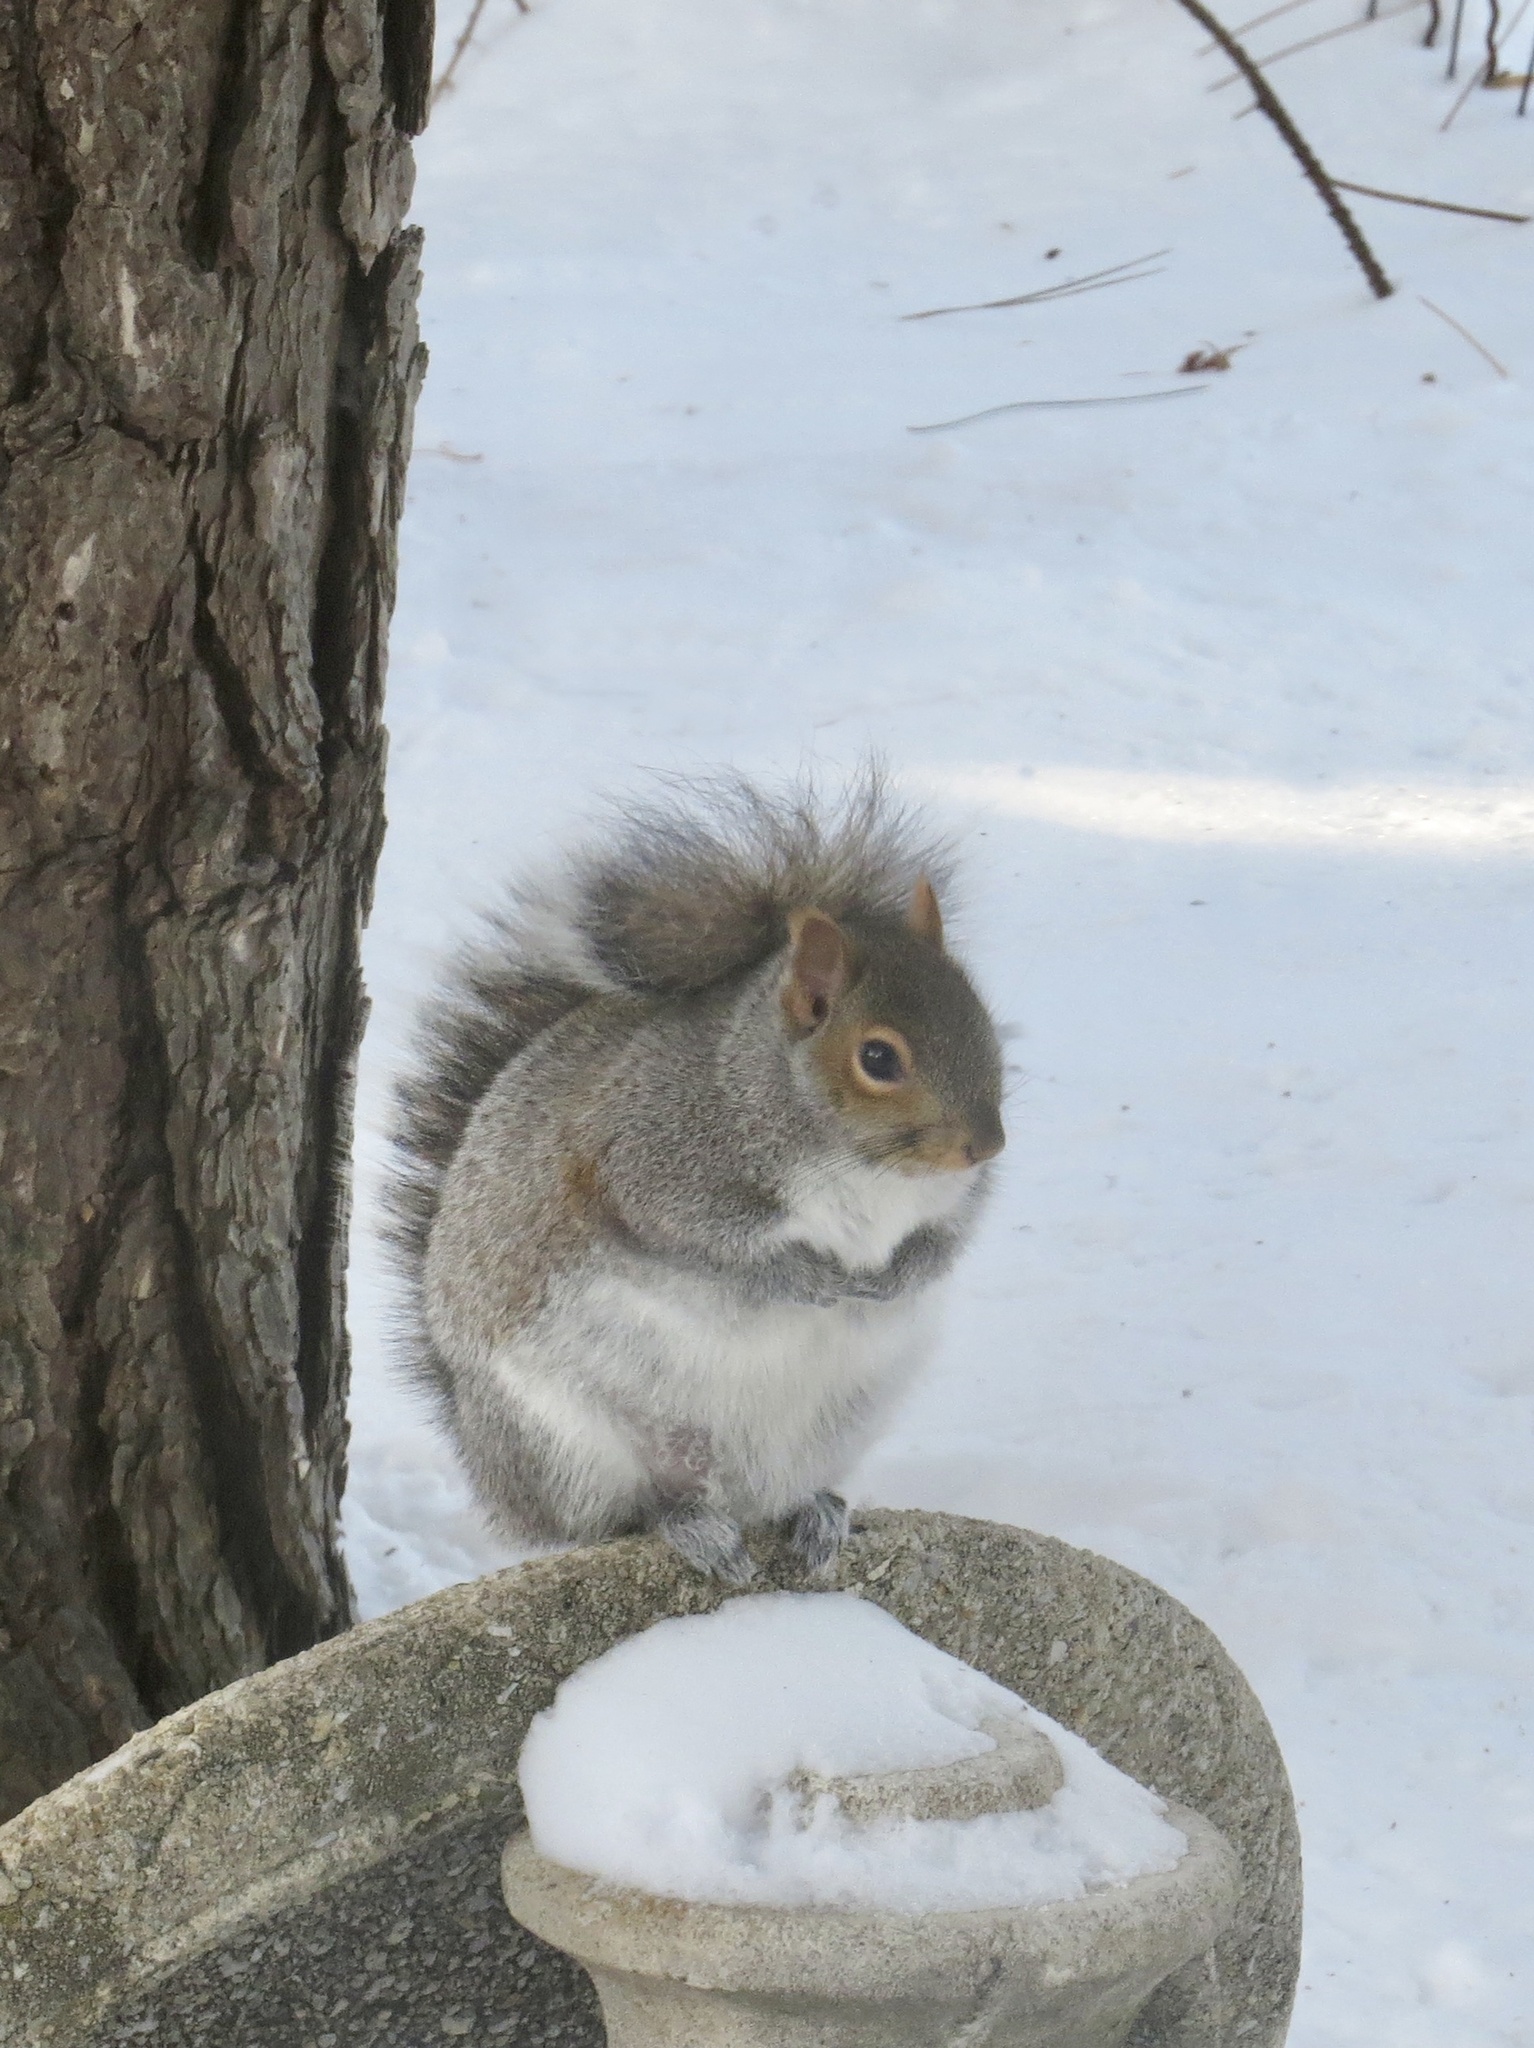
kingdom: Animalia
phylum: Chordata
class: Mammalia
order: Rodentia
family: Sciuridae
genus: Sciurus
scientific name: Sciurus carolinensis
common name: Eastern gray squirrel
